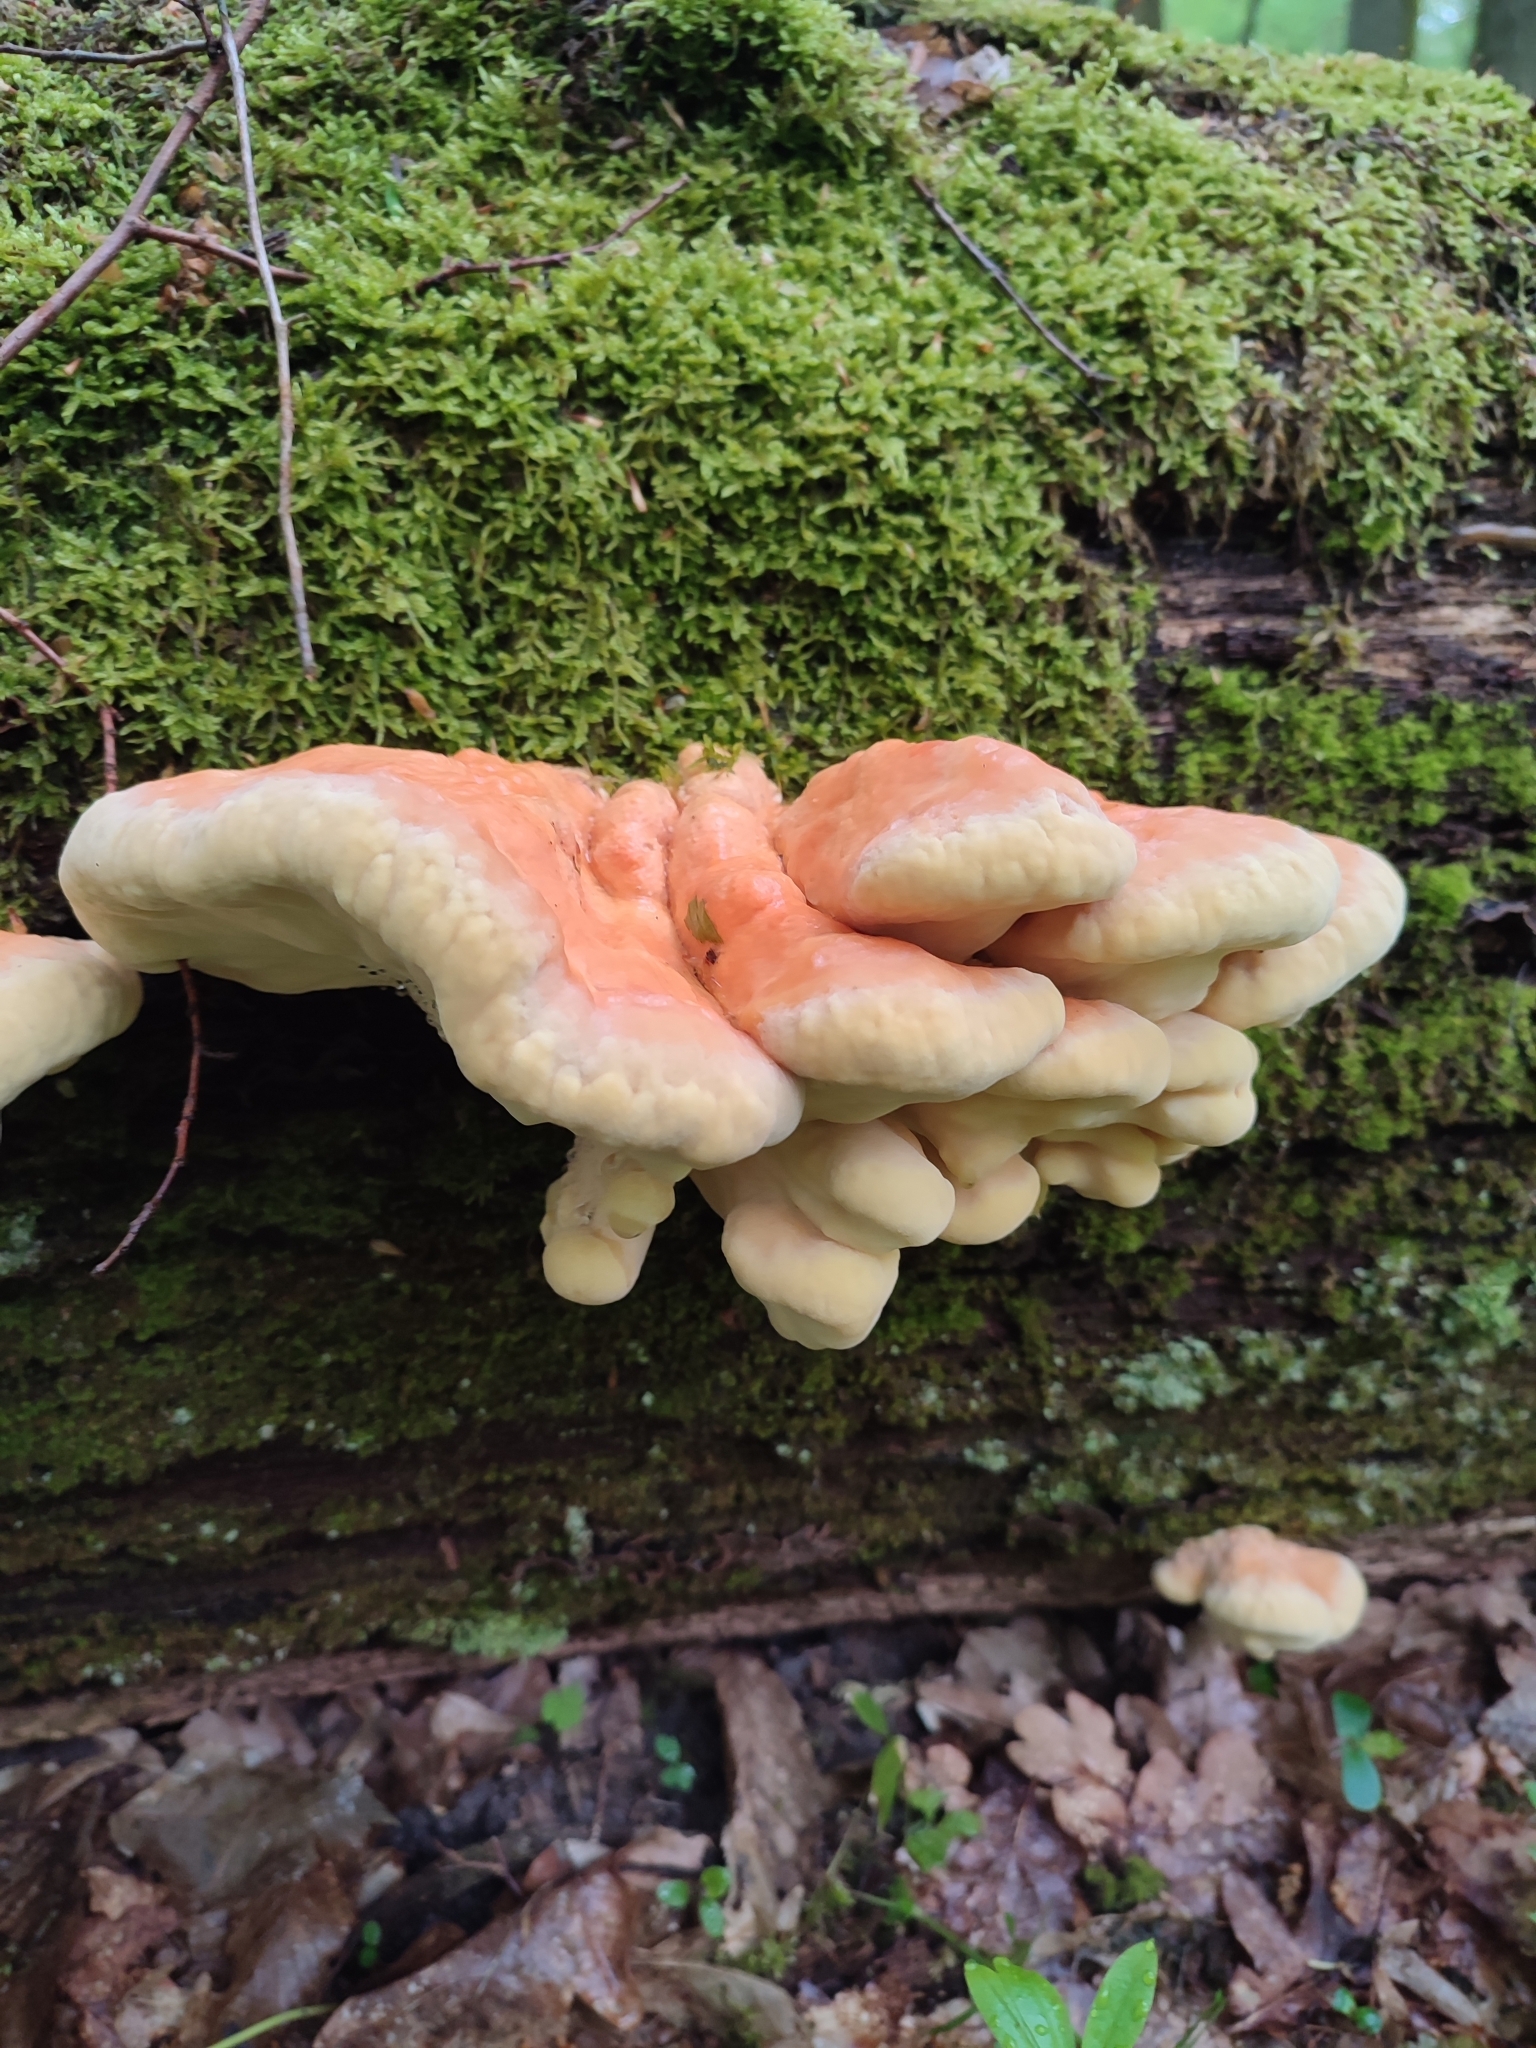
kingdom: Fungi
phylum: Basidiomycota
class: Agaricomycetes
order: Polyporales
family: Laetiporaceae
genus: Laetiporus
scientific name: Laetiporus sulphureus
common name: Chicken of the woods
